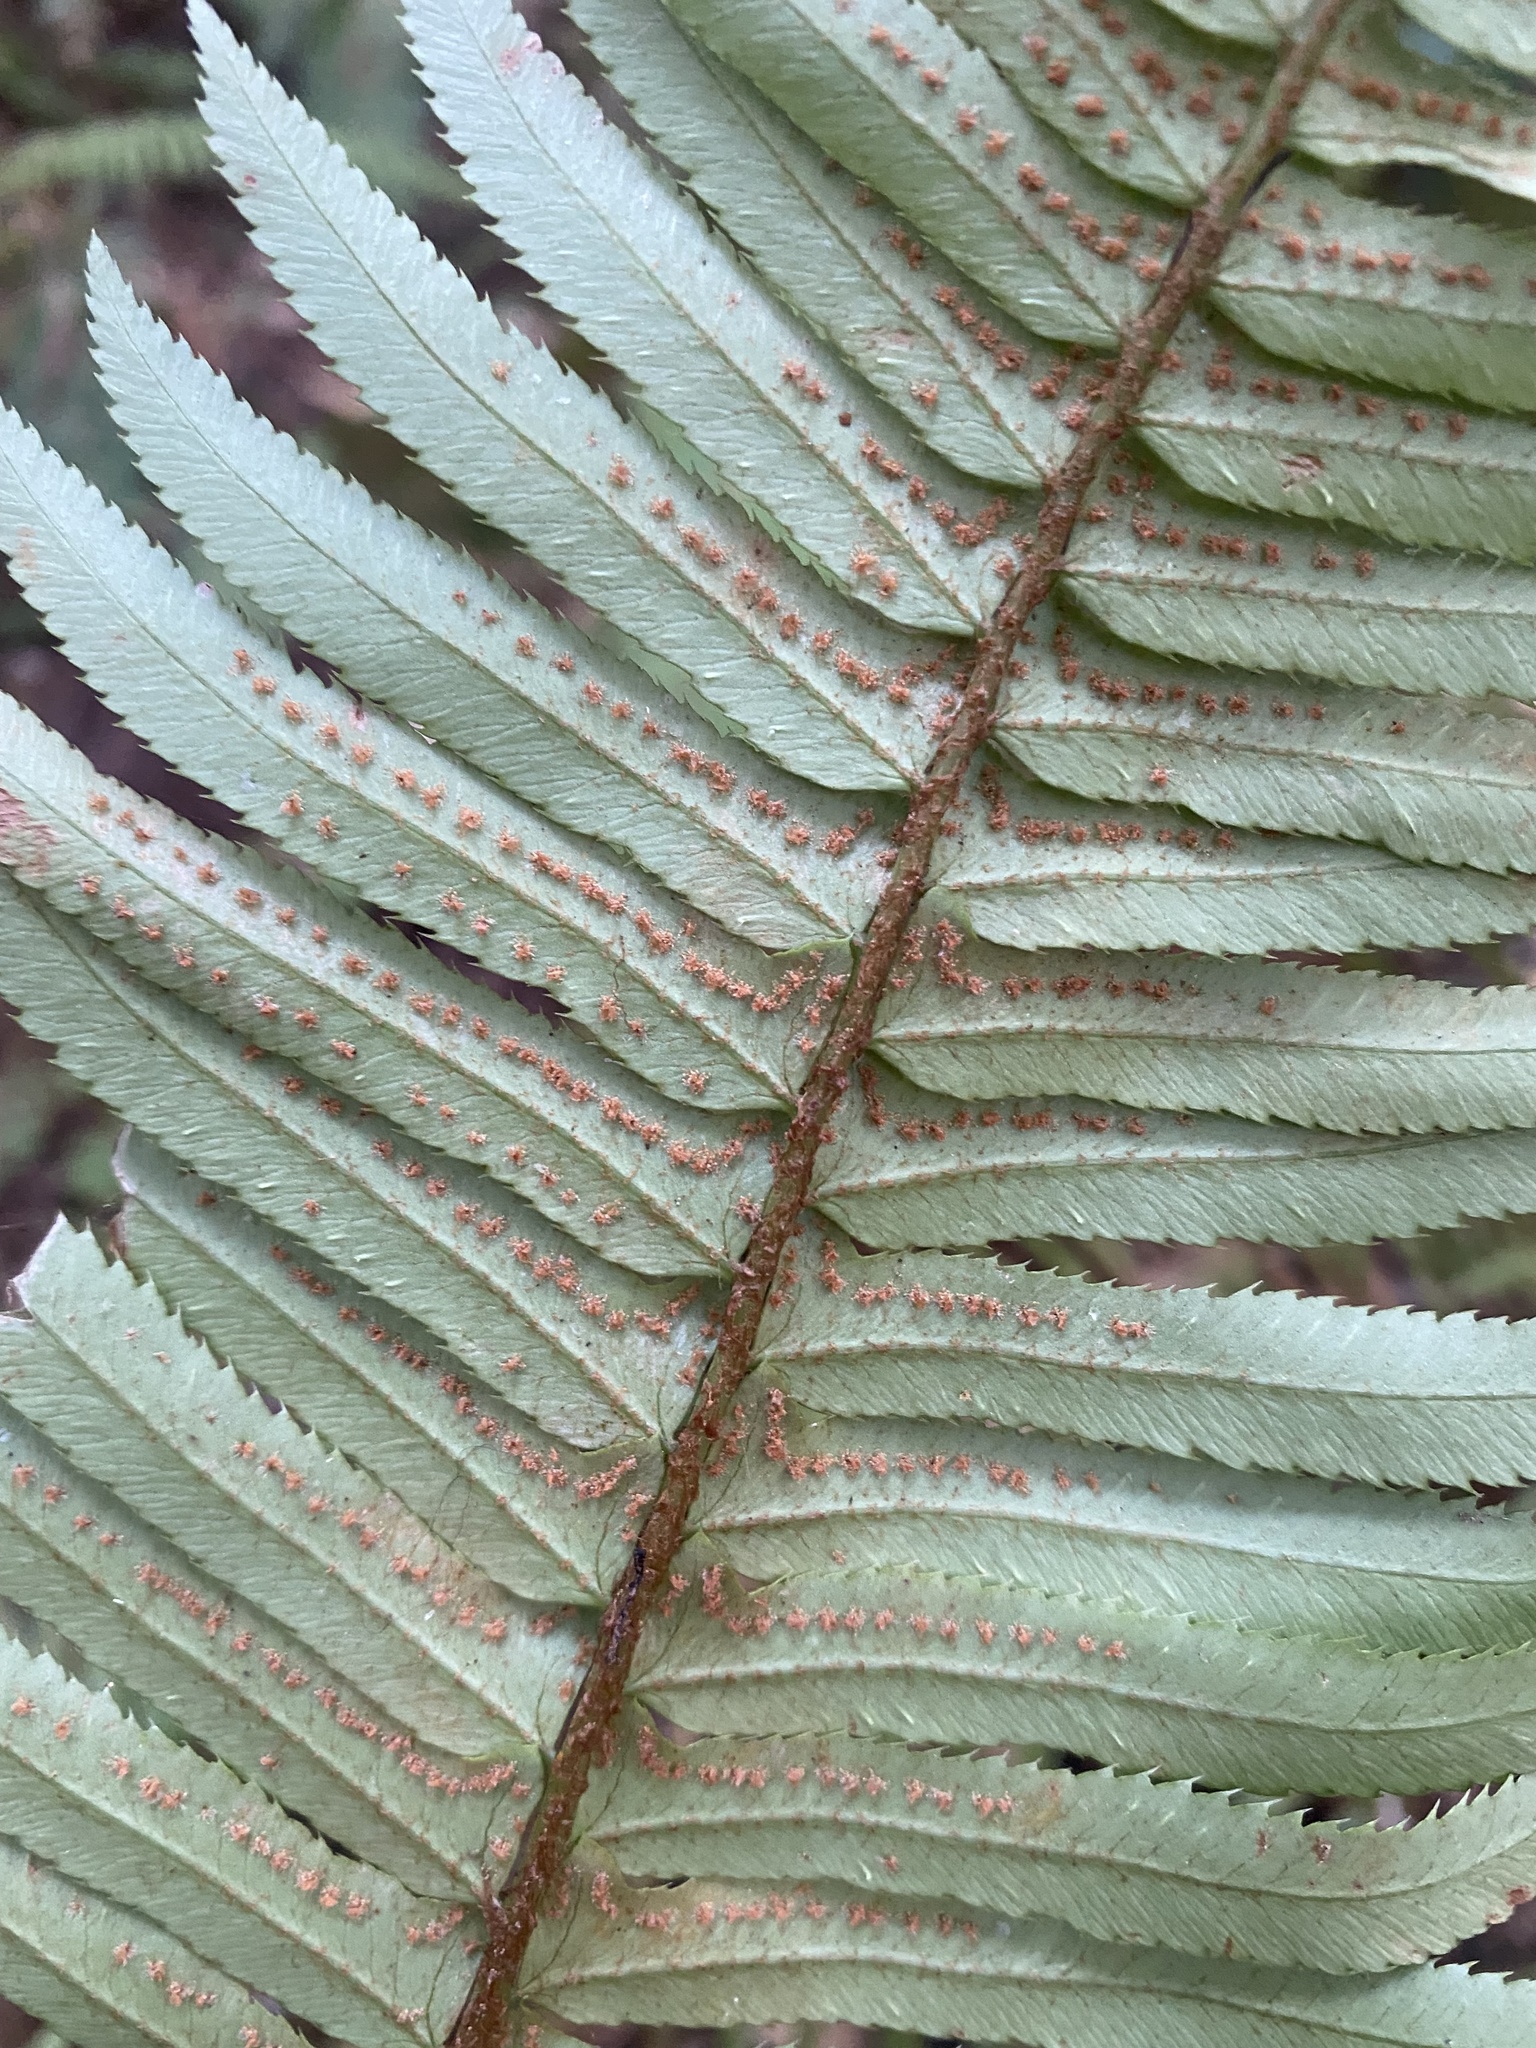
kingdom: Plantae
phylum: Tracheophyta
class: Polypodiopsida
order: Polypodiales
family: Dryopteridaceae
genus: Polystichum
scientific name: Polystichum munitum
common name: Western sword-fern
